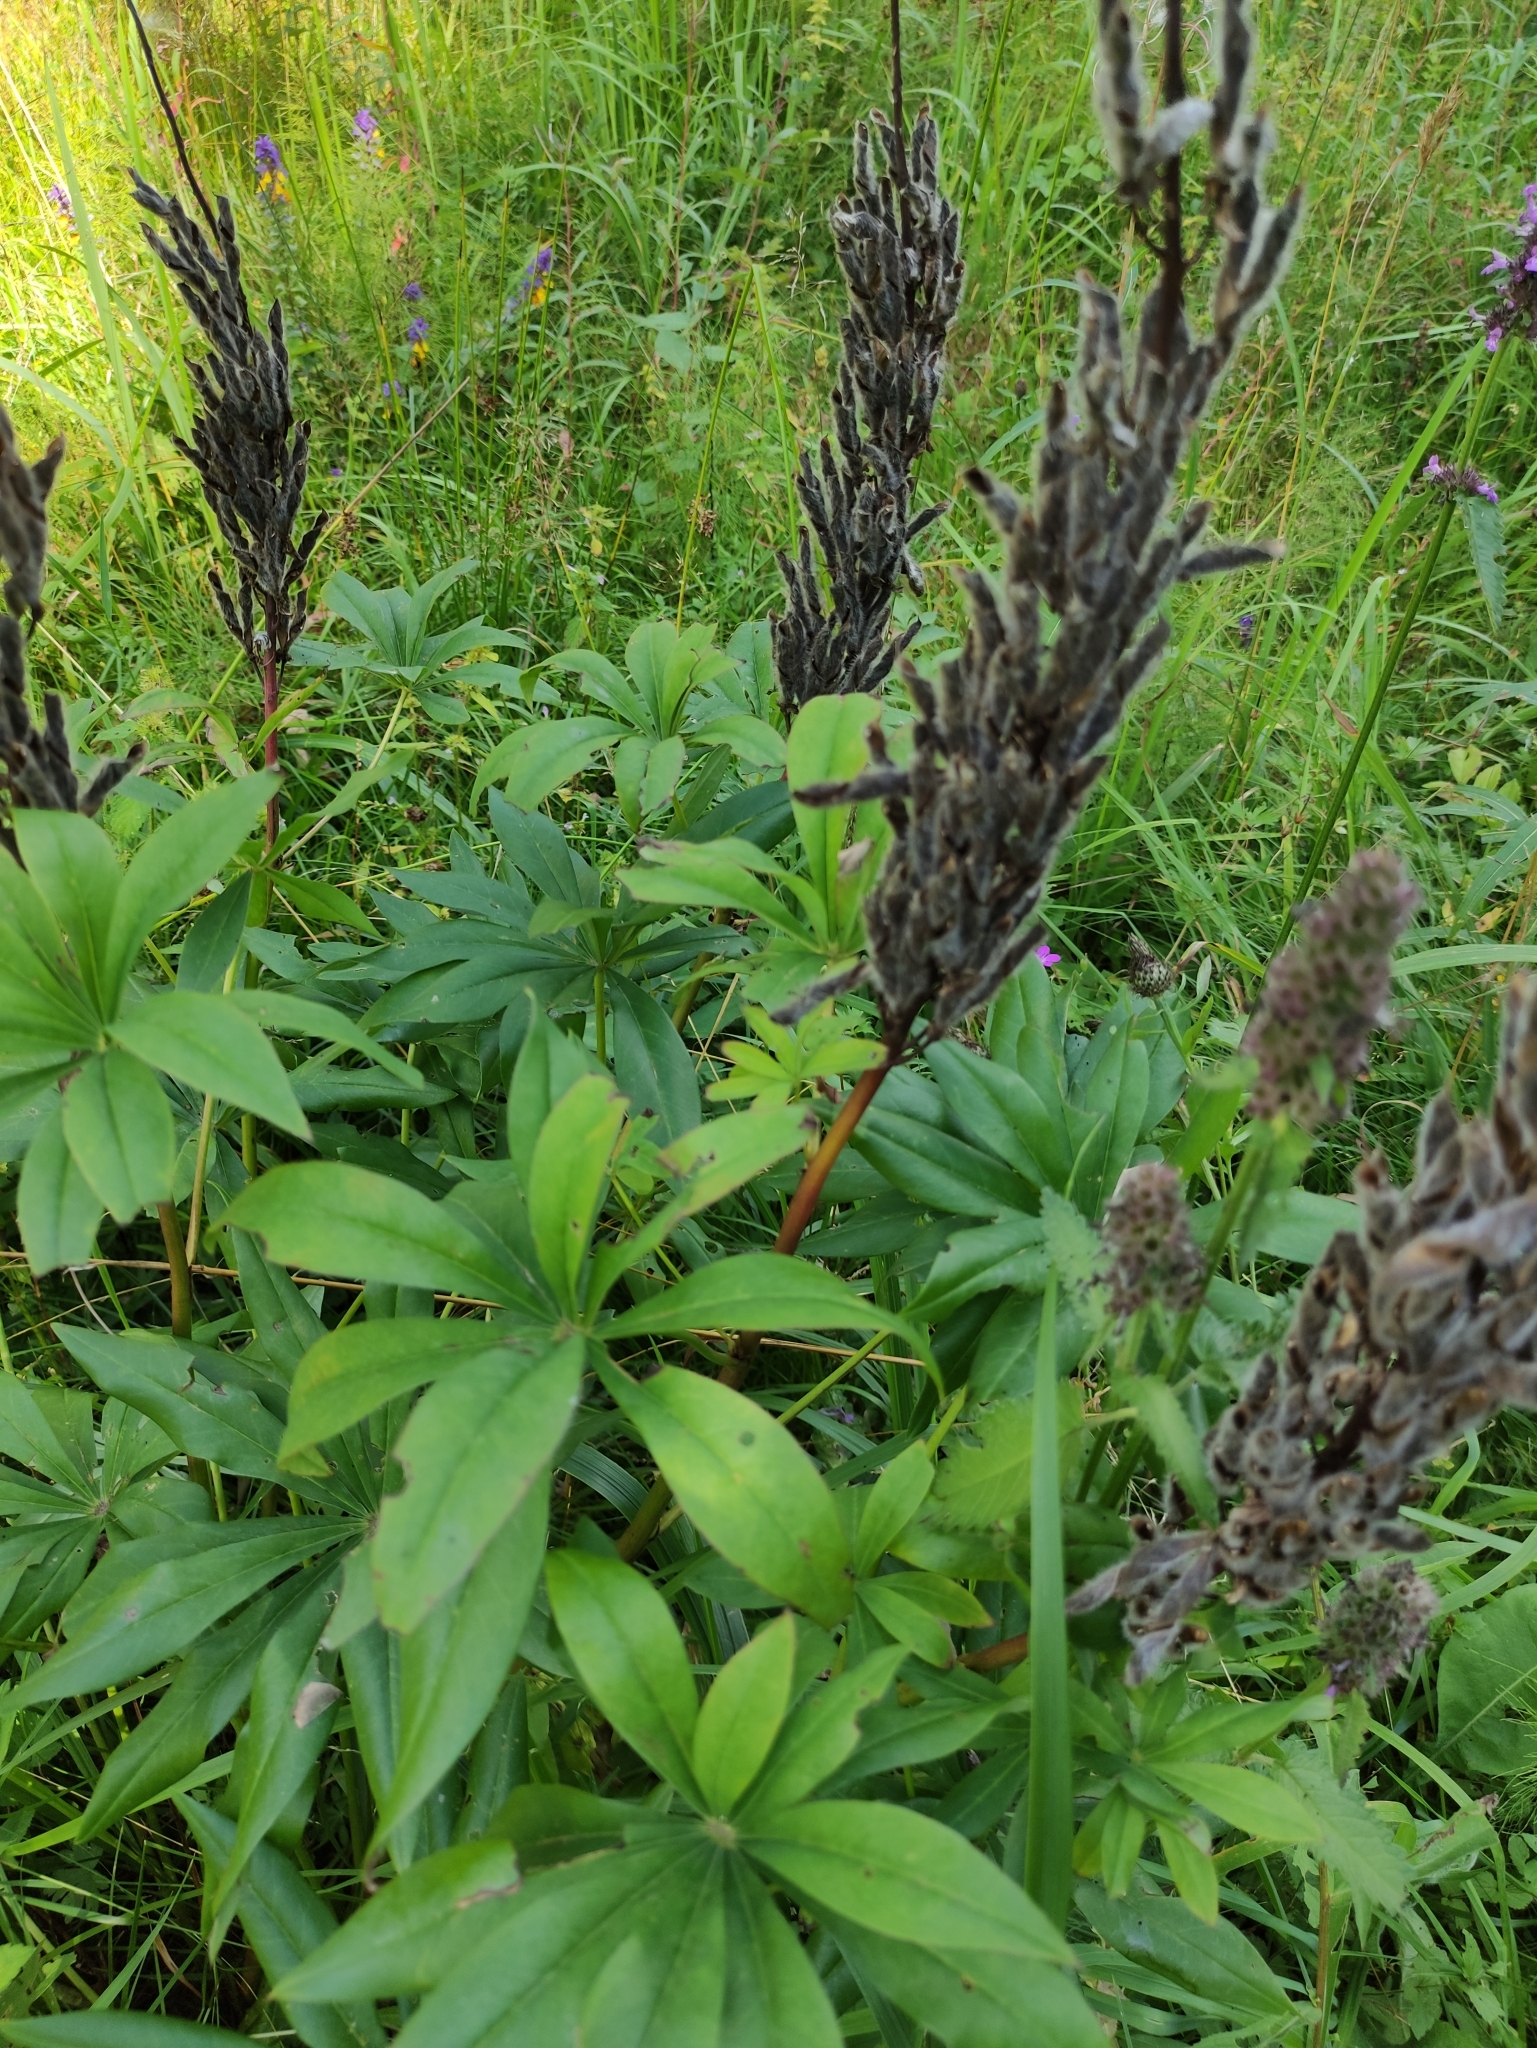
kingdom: Plantae
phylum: Tracheophyta
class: Magnoliopsida
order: Fabales
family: Fabaceae
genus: Lupinus
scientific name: Lupinus polyphyllus
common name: Garden lupin
